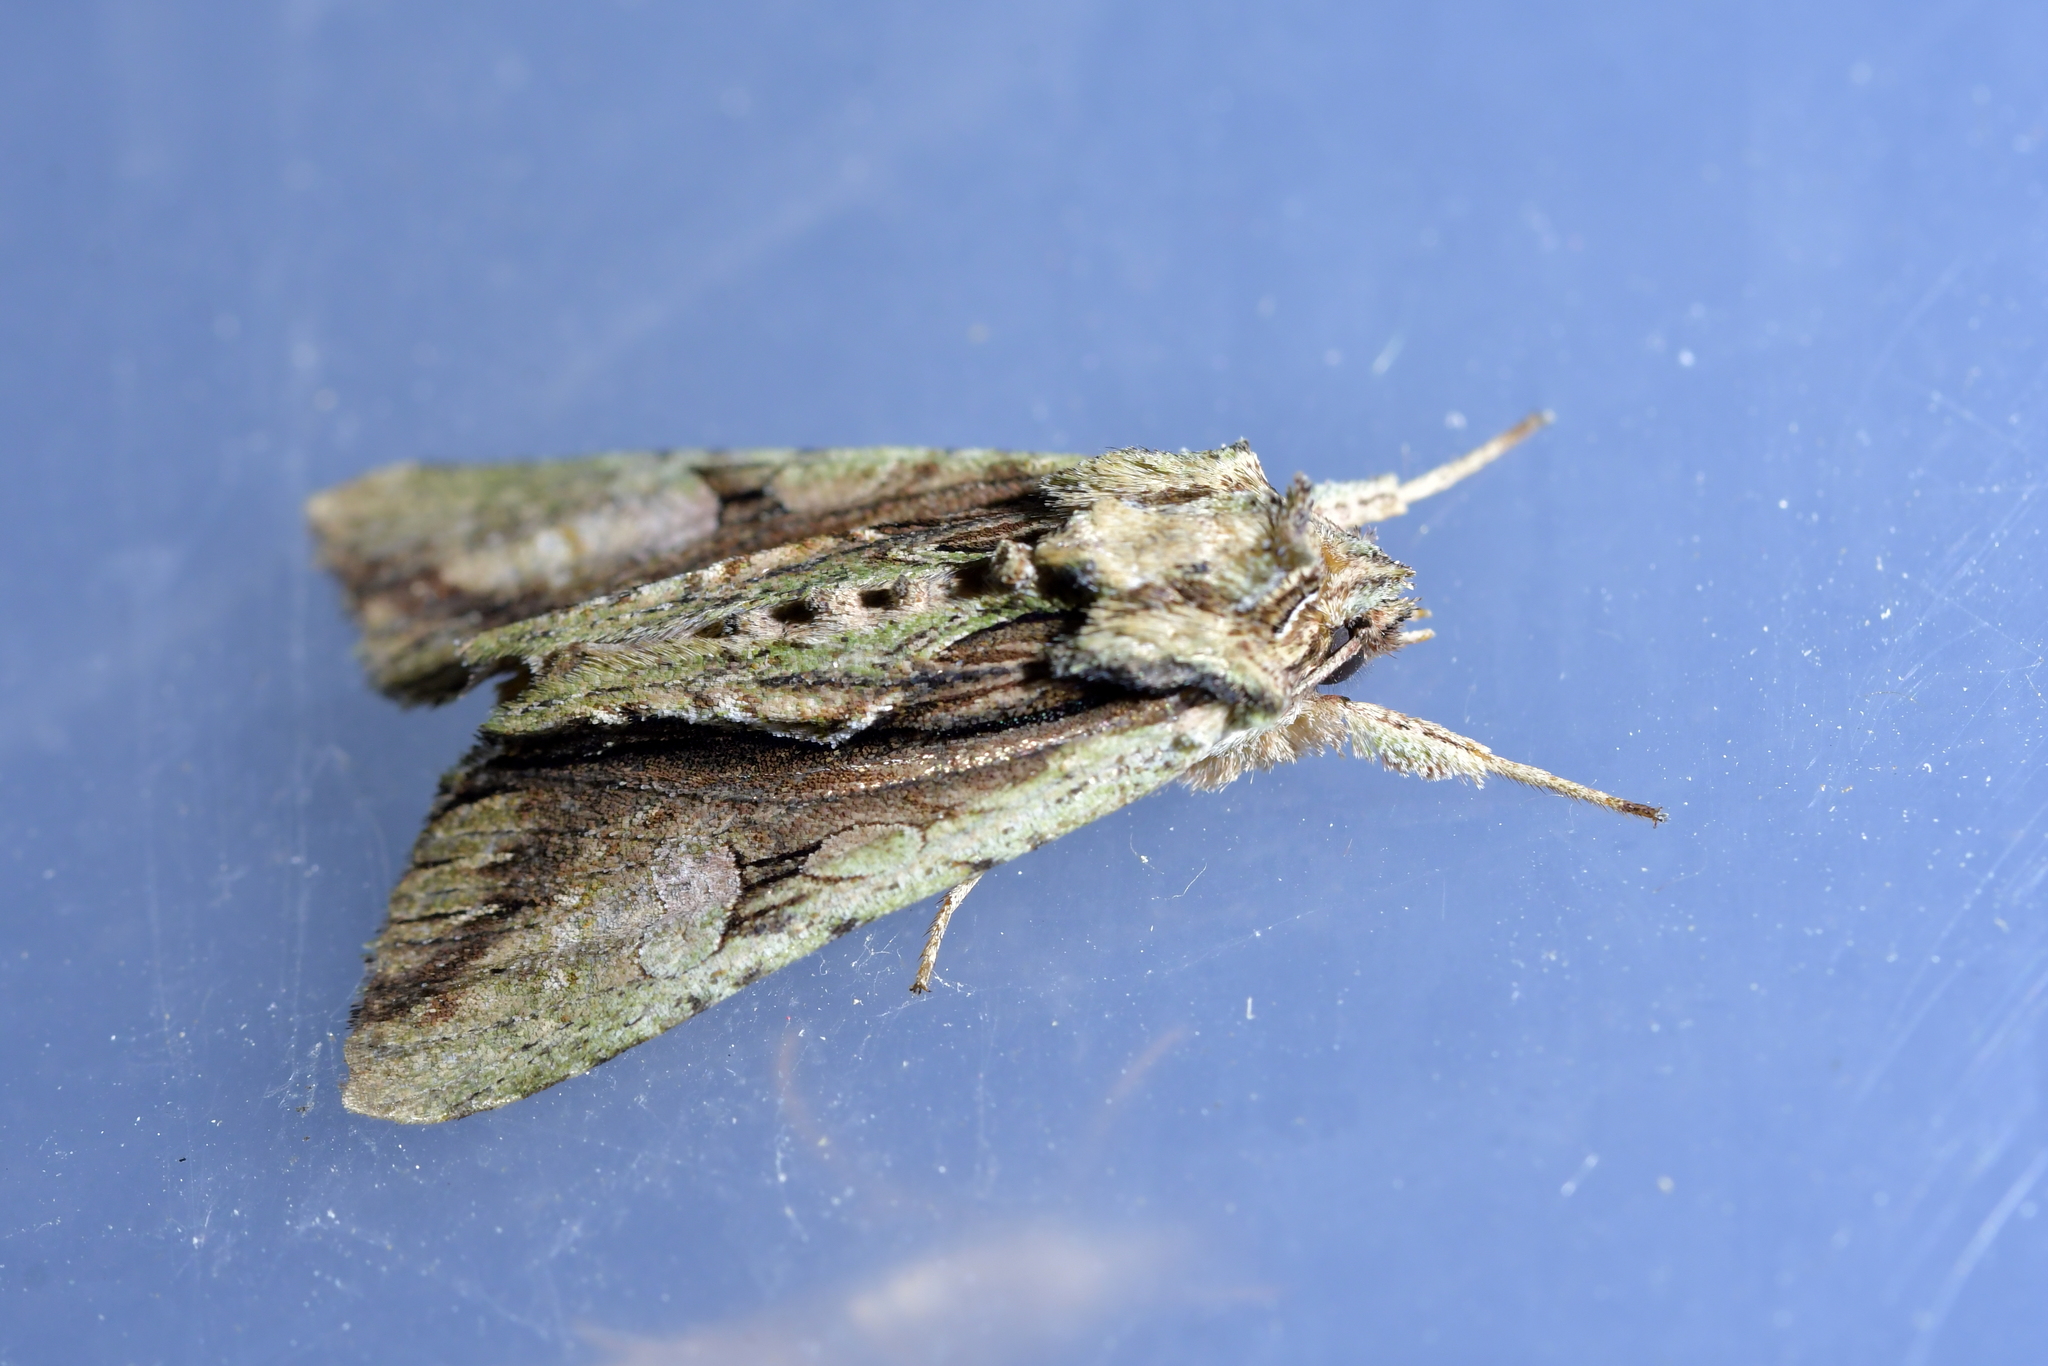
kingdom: Animalia
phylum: Arthropoda
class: Insecta
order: Lepidoptera
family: Noctuidae
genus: Meterana
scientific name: Meterana decorata
